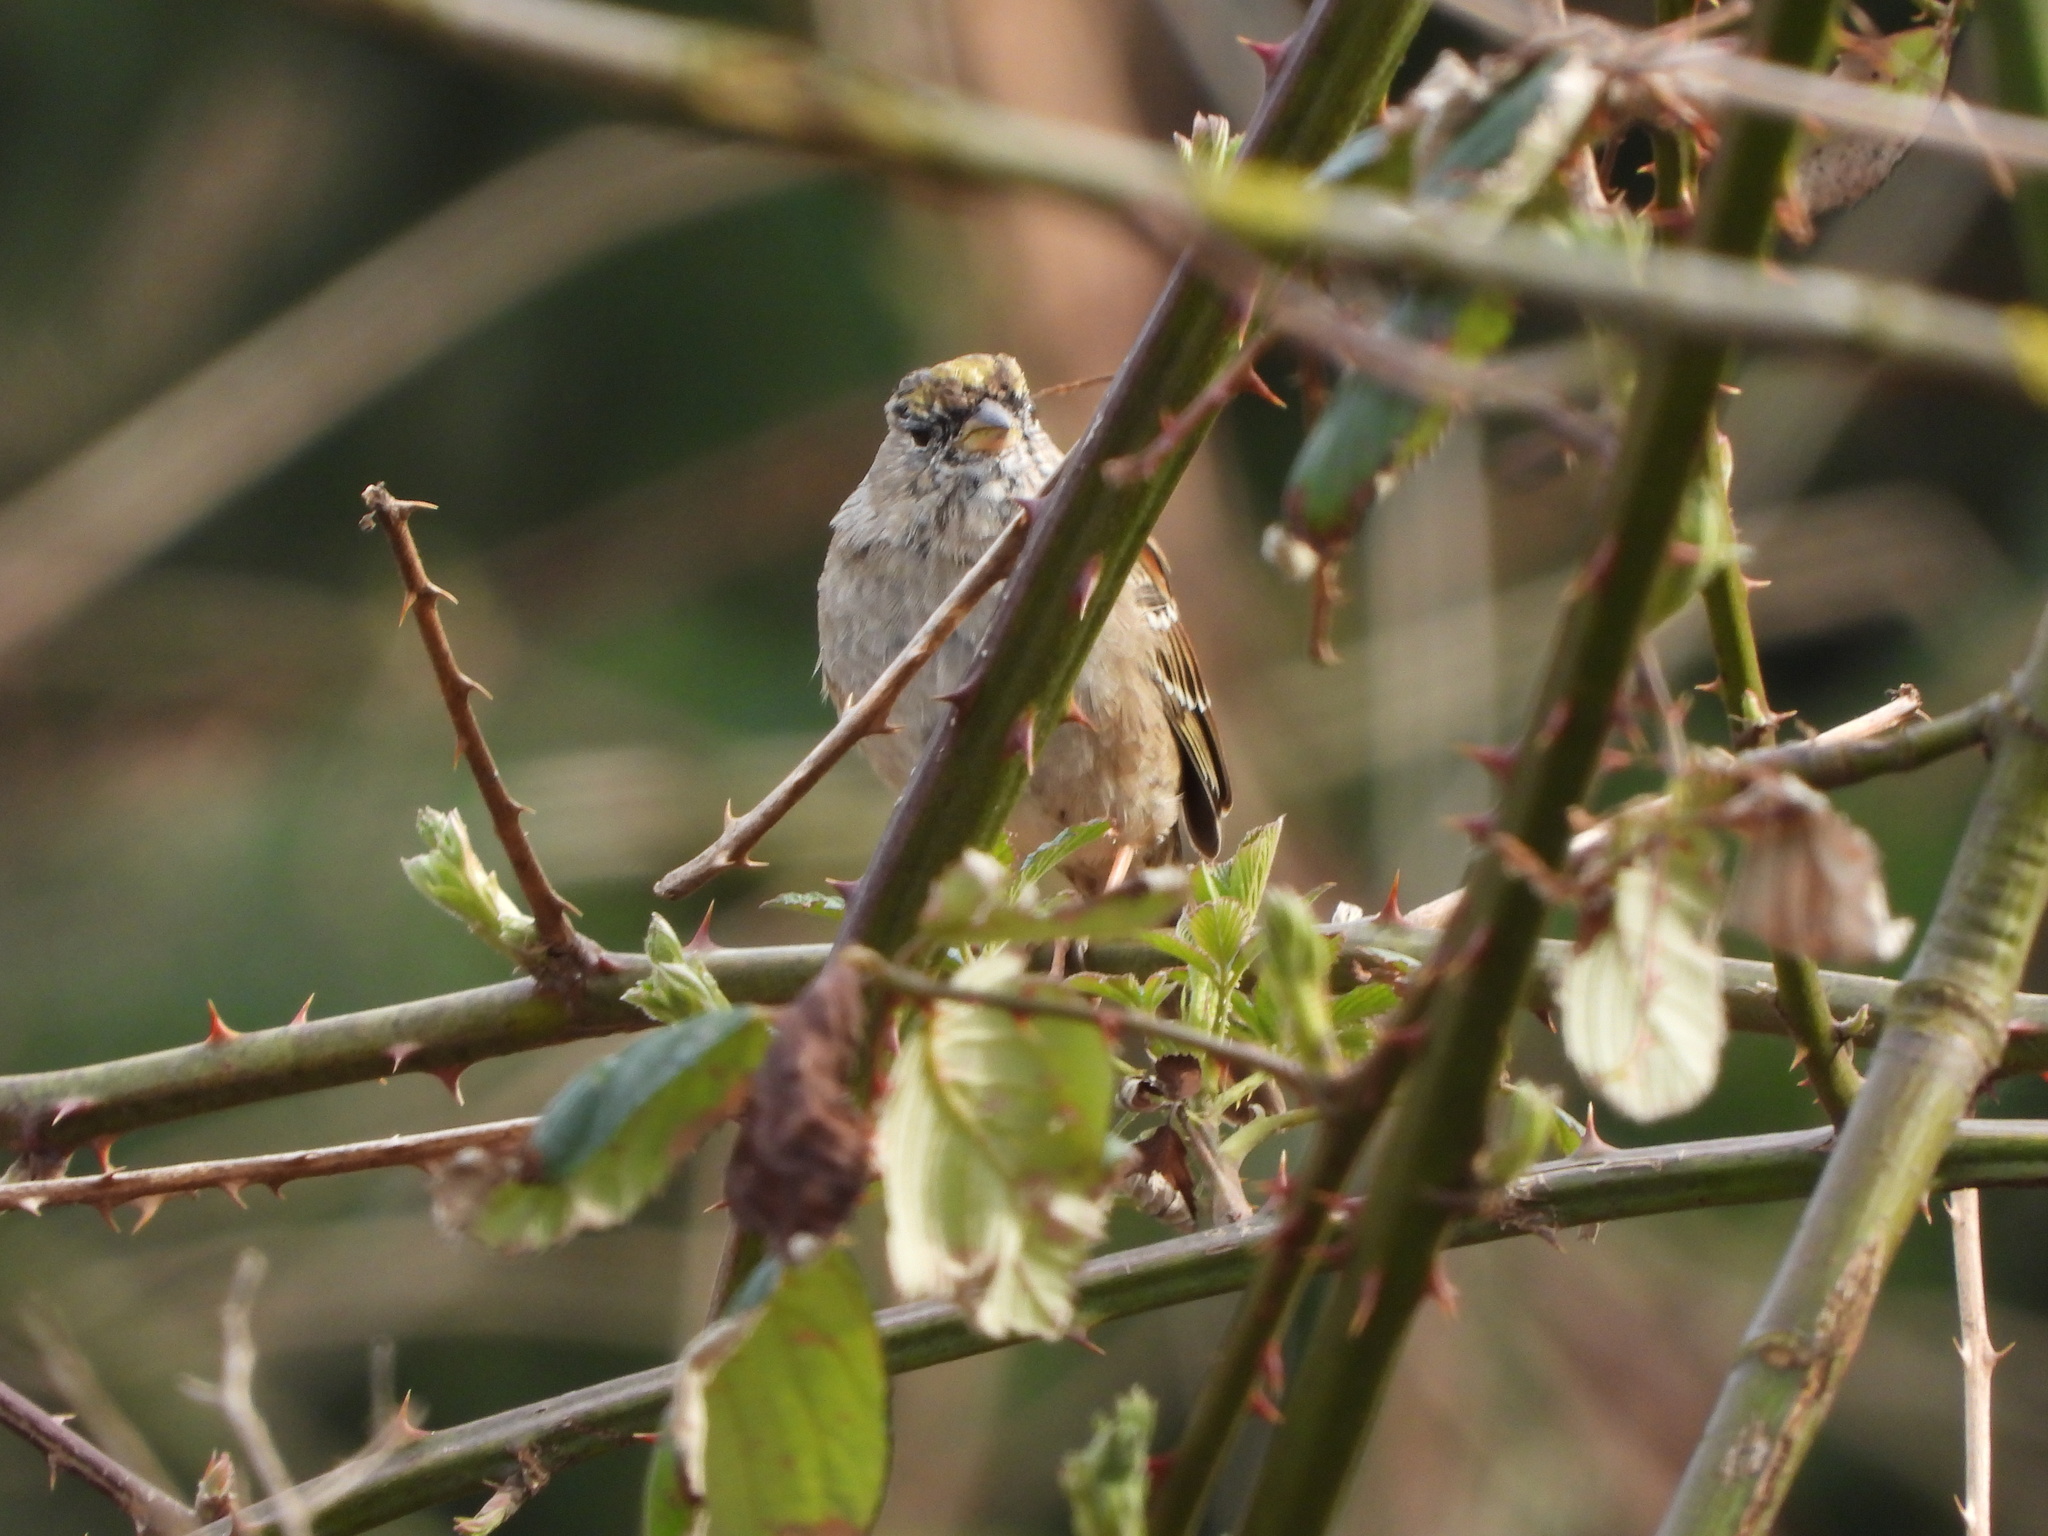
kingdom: Animalia
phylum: Chordata
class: Aves
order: Passeriformes
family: Passerellidae
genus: Zonotrichia
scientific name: Zonotrichia atricapilla
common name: Golden-crowned sparrow
